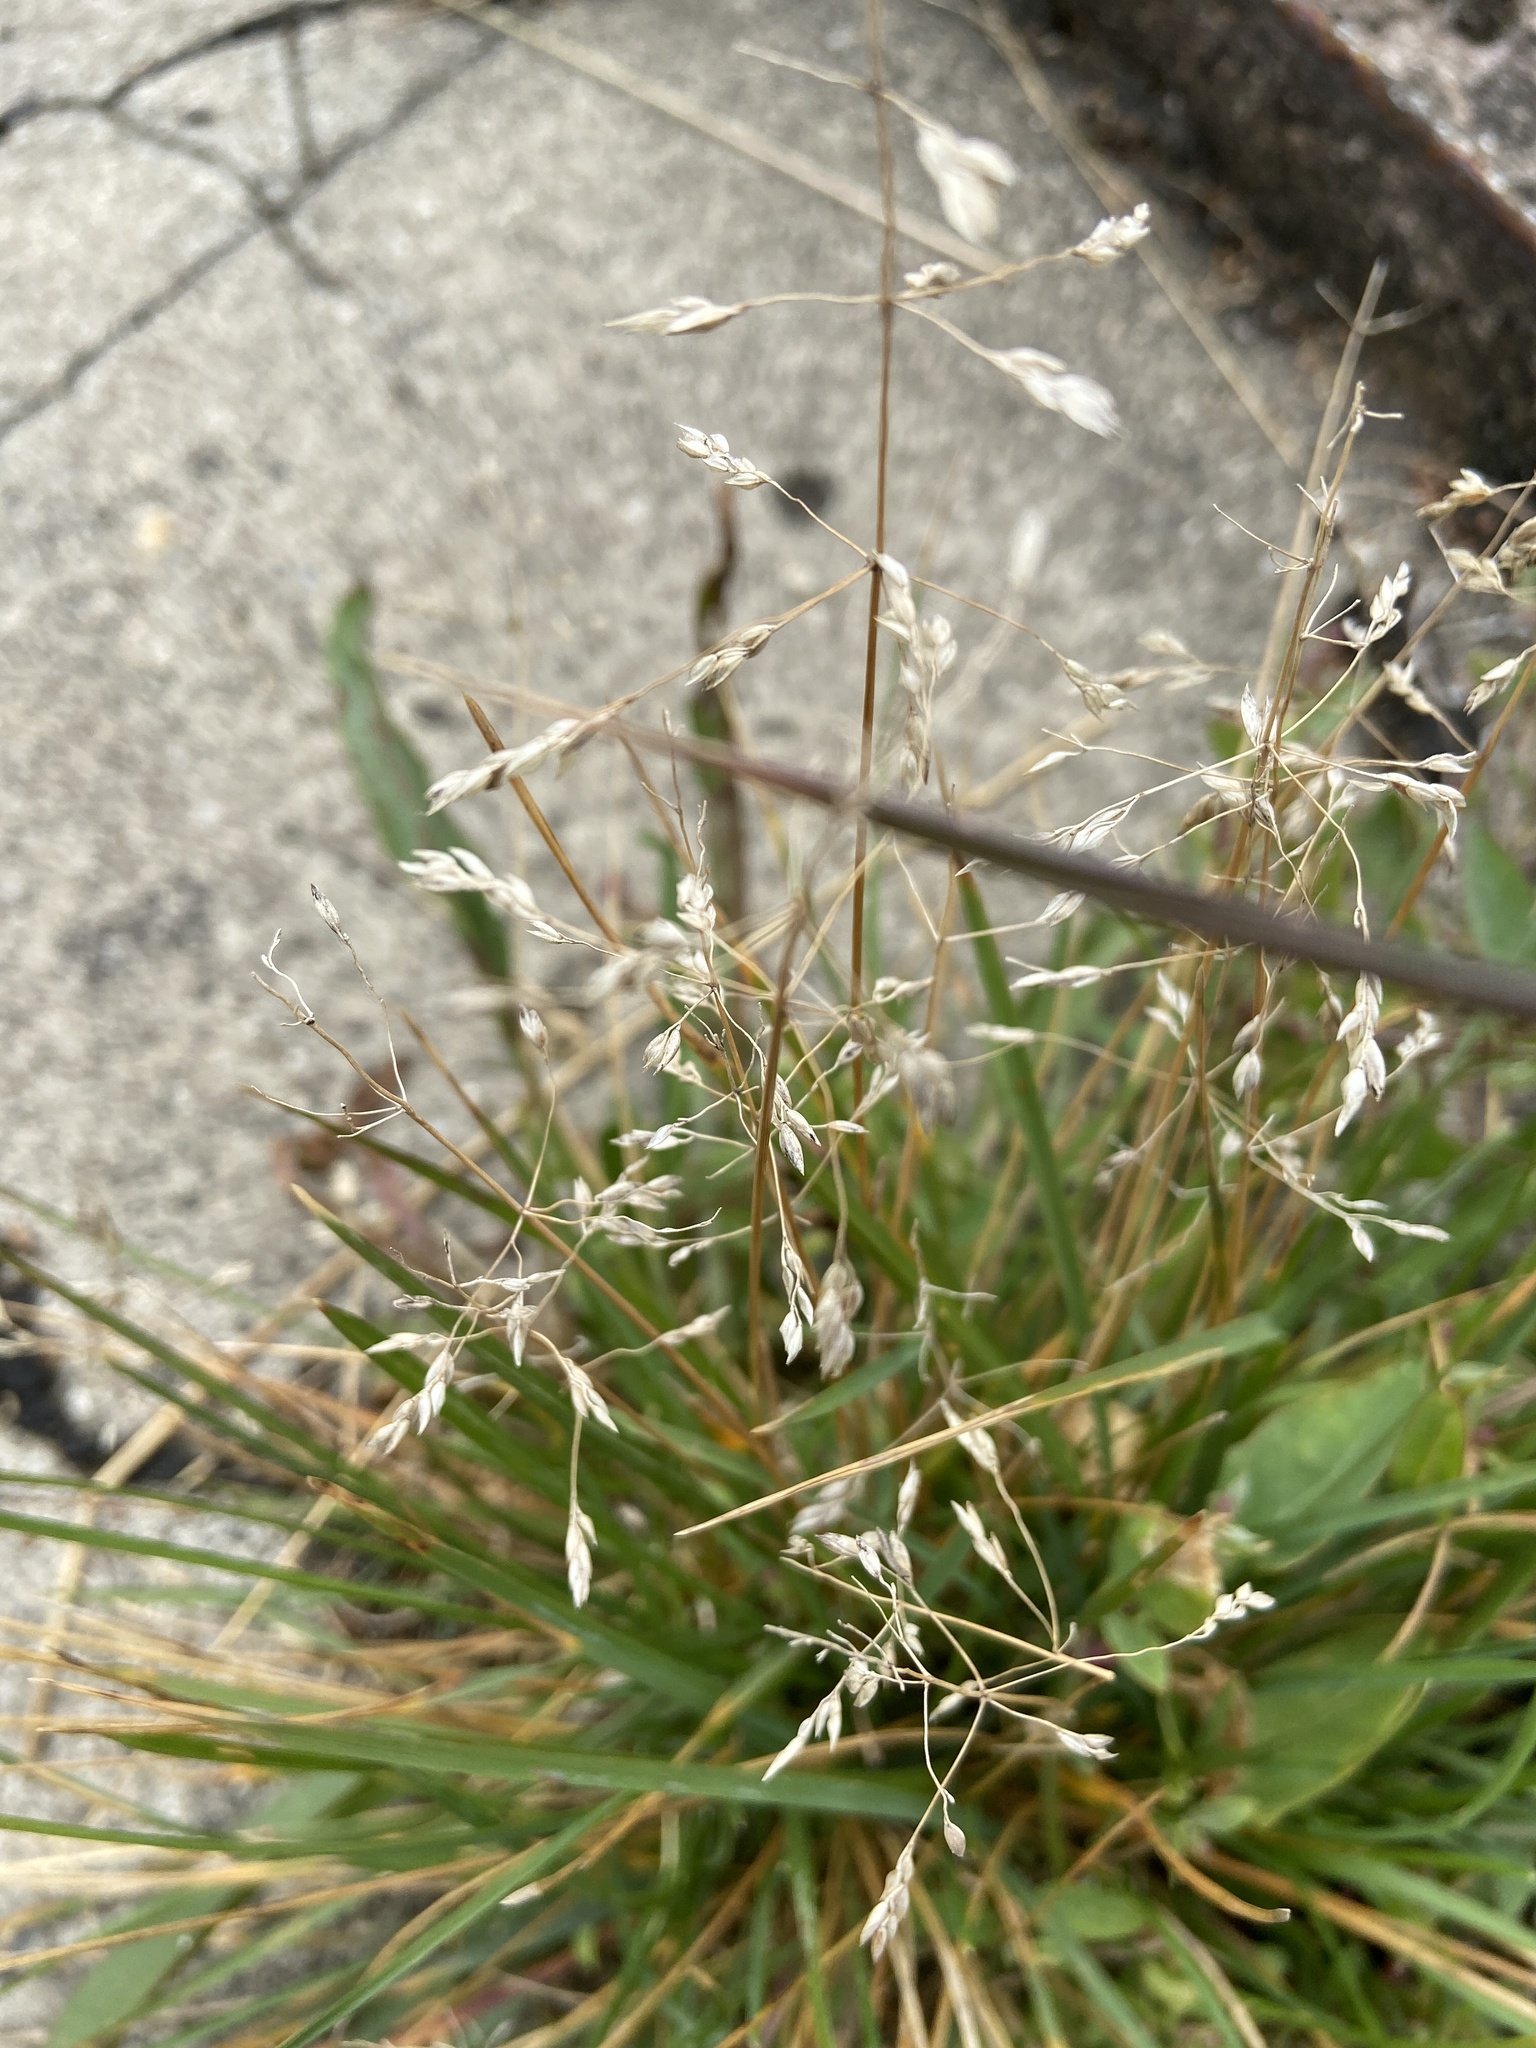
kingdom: Plantae
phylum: Tracheophyta
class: Liliopsida
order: Poales
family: Poaceae
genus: Poa
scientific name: Poa annua
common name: Annual bluegrass
